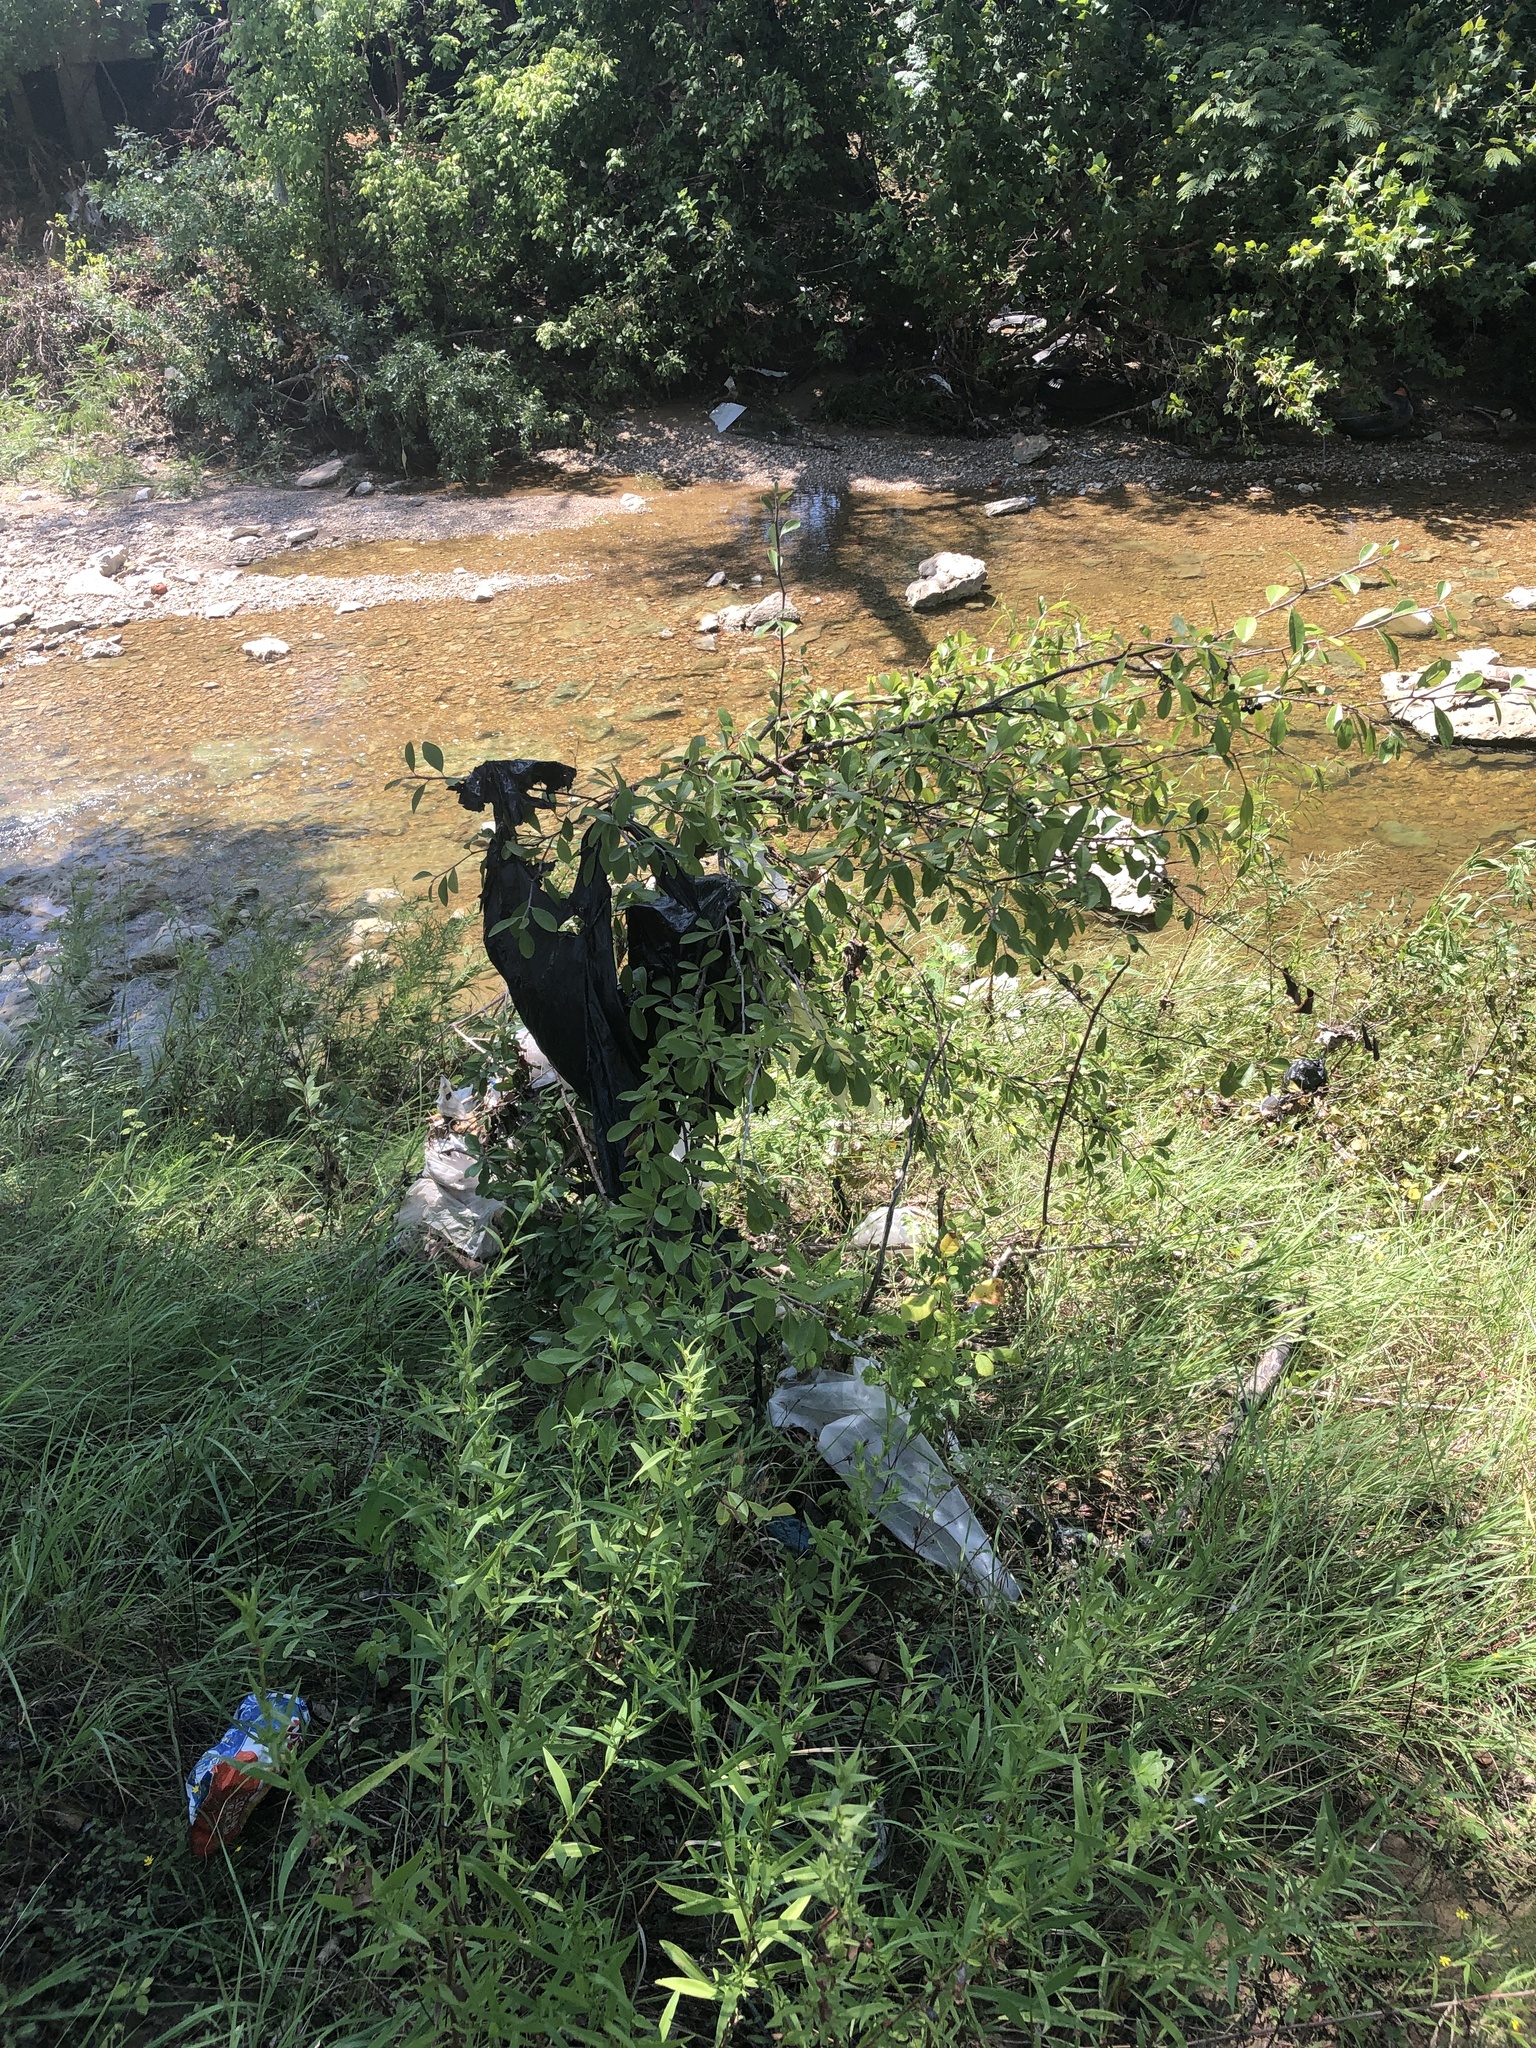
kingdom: Plantae
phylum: Tracheophyta
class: Magnoliopsida
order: Ericales
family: Sapotaceae
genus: Sideroxylon
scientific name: Sideroxylon lanuginosum
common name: Chittamwood
